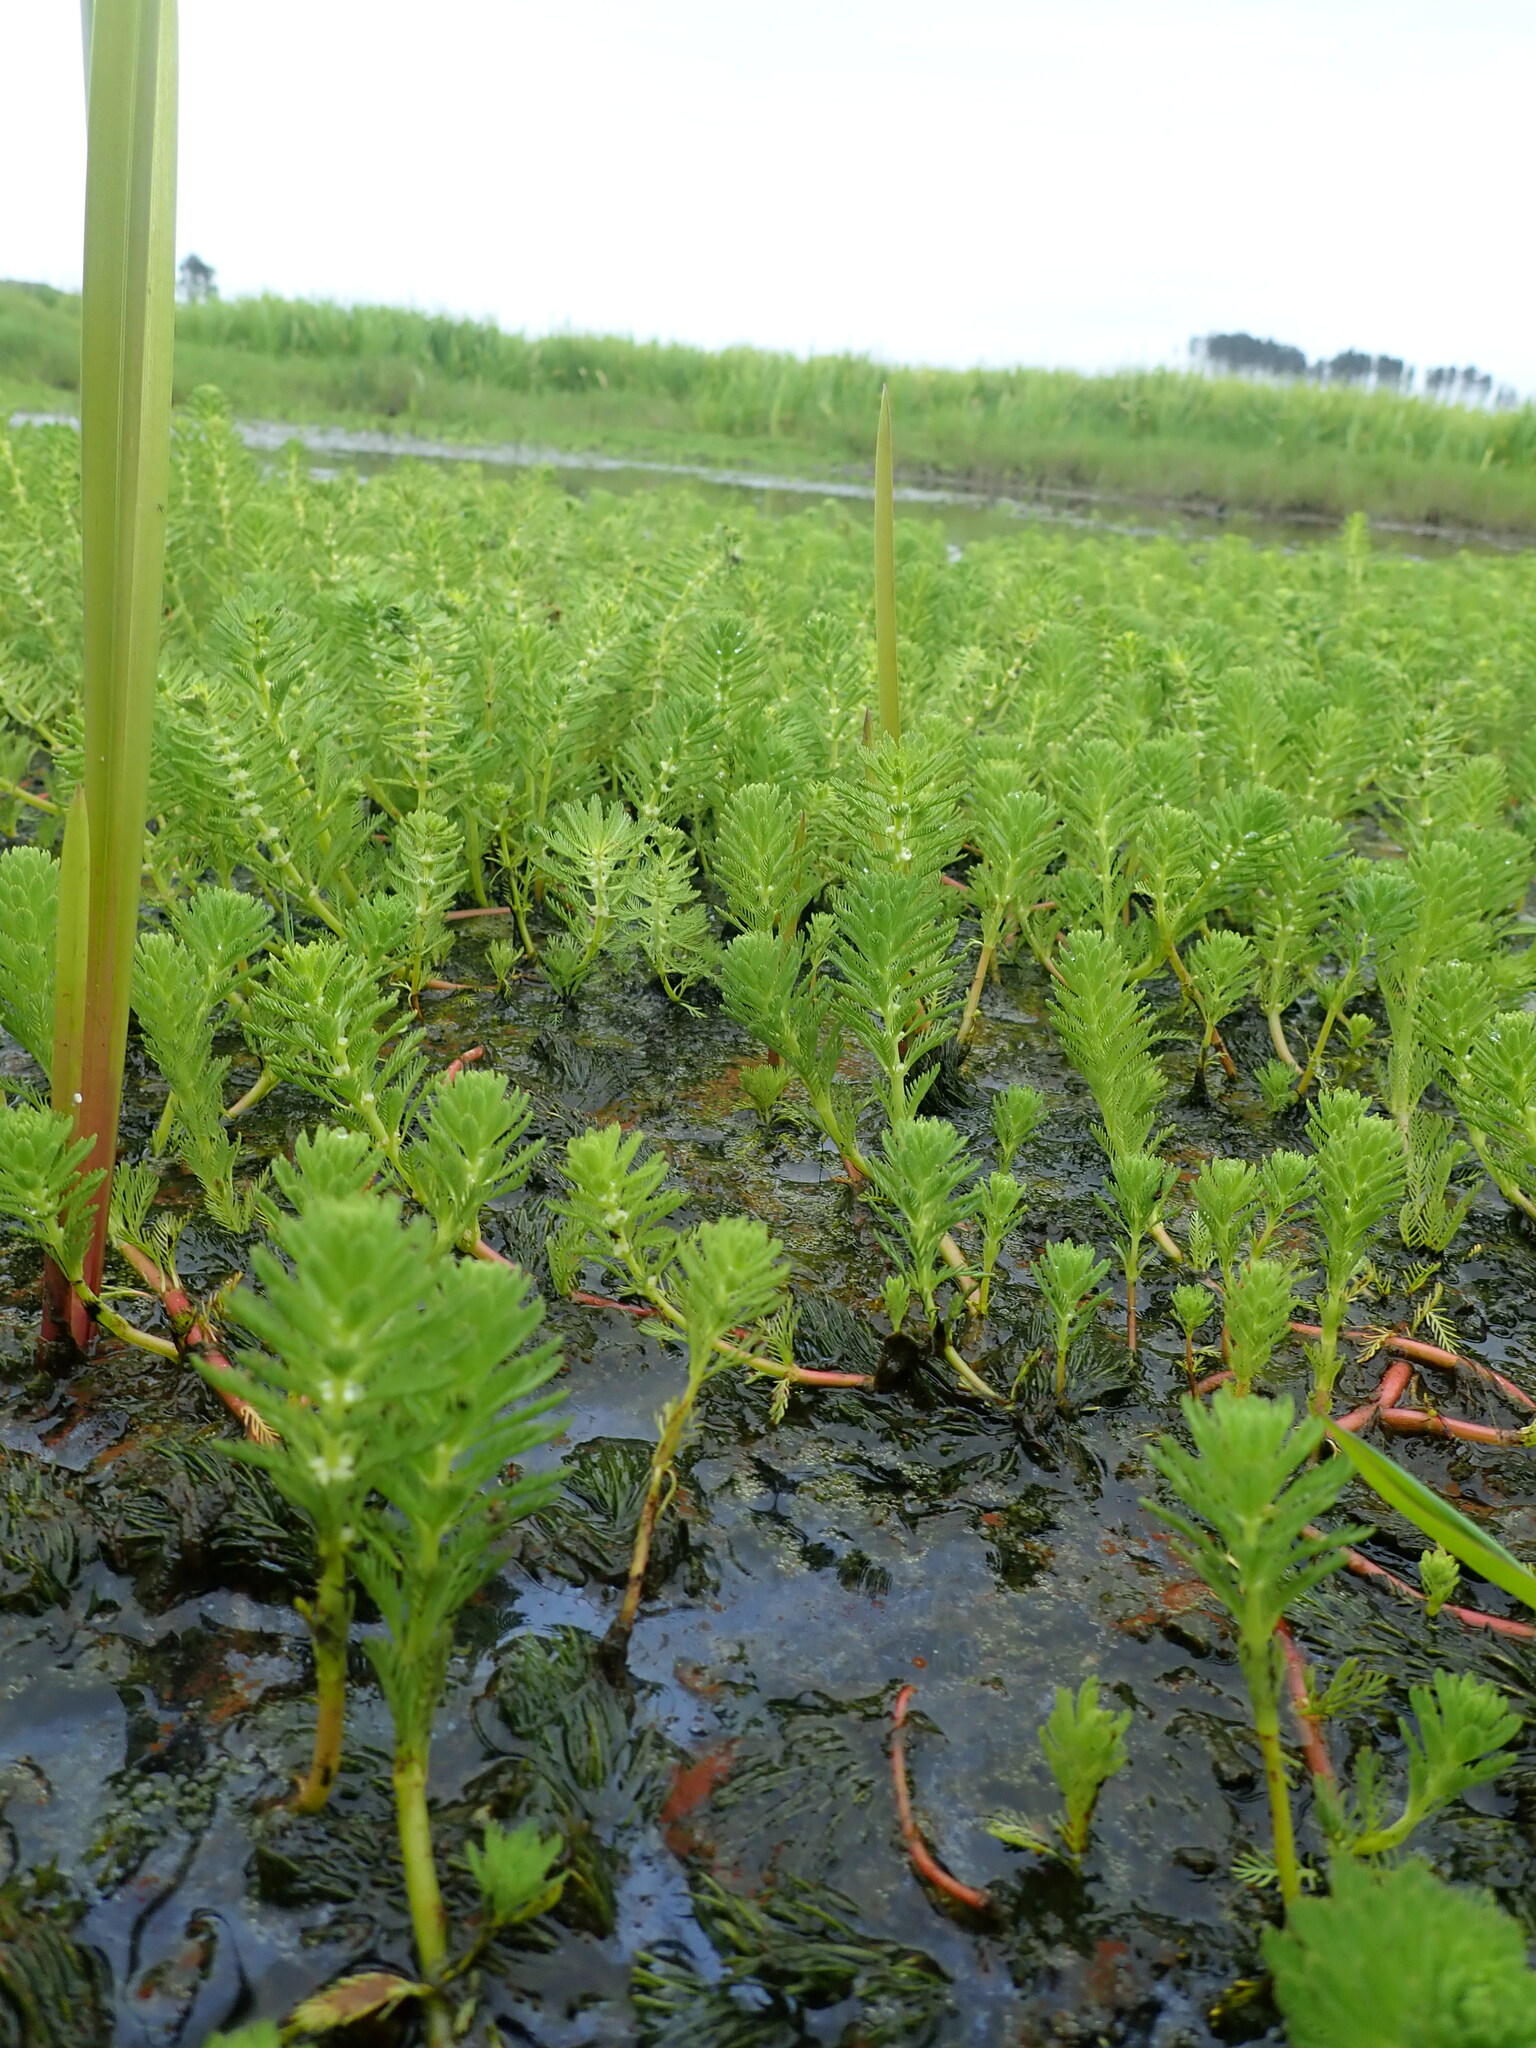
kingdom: Plantae
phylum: Tracheophyta
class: Magnoliopsida
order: Saxifragales
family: Haloragaceae
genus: Myriophyllum
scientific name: Myriophyllum aquaticum
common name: Parrot's feather
